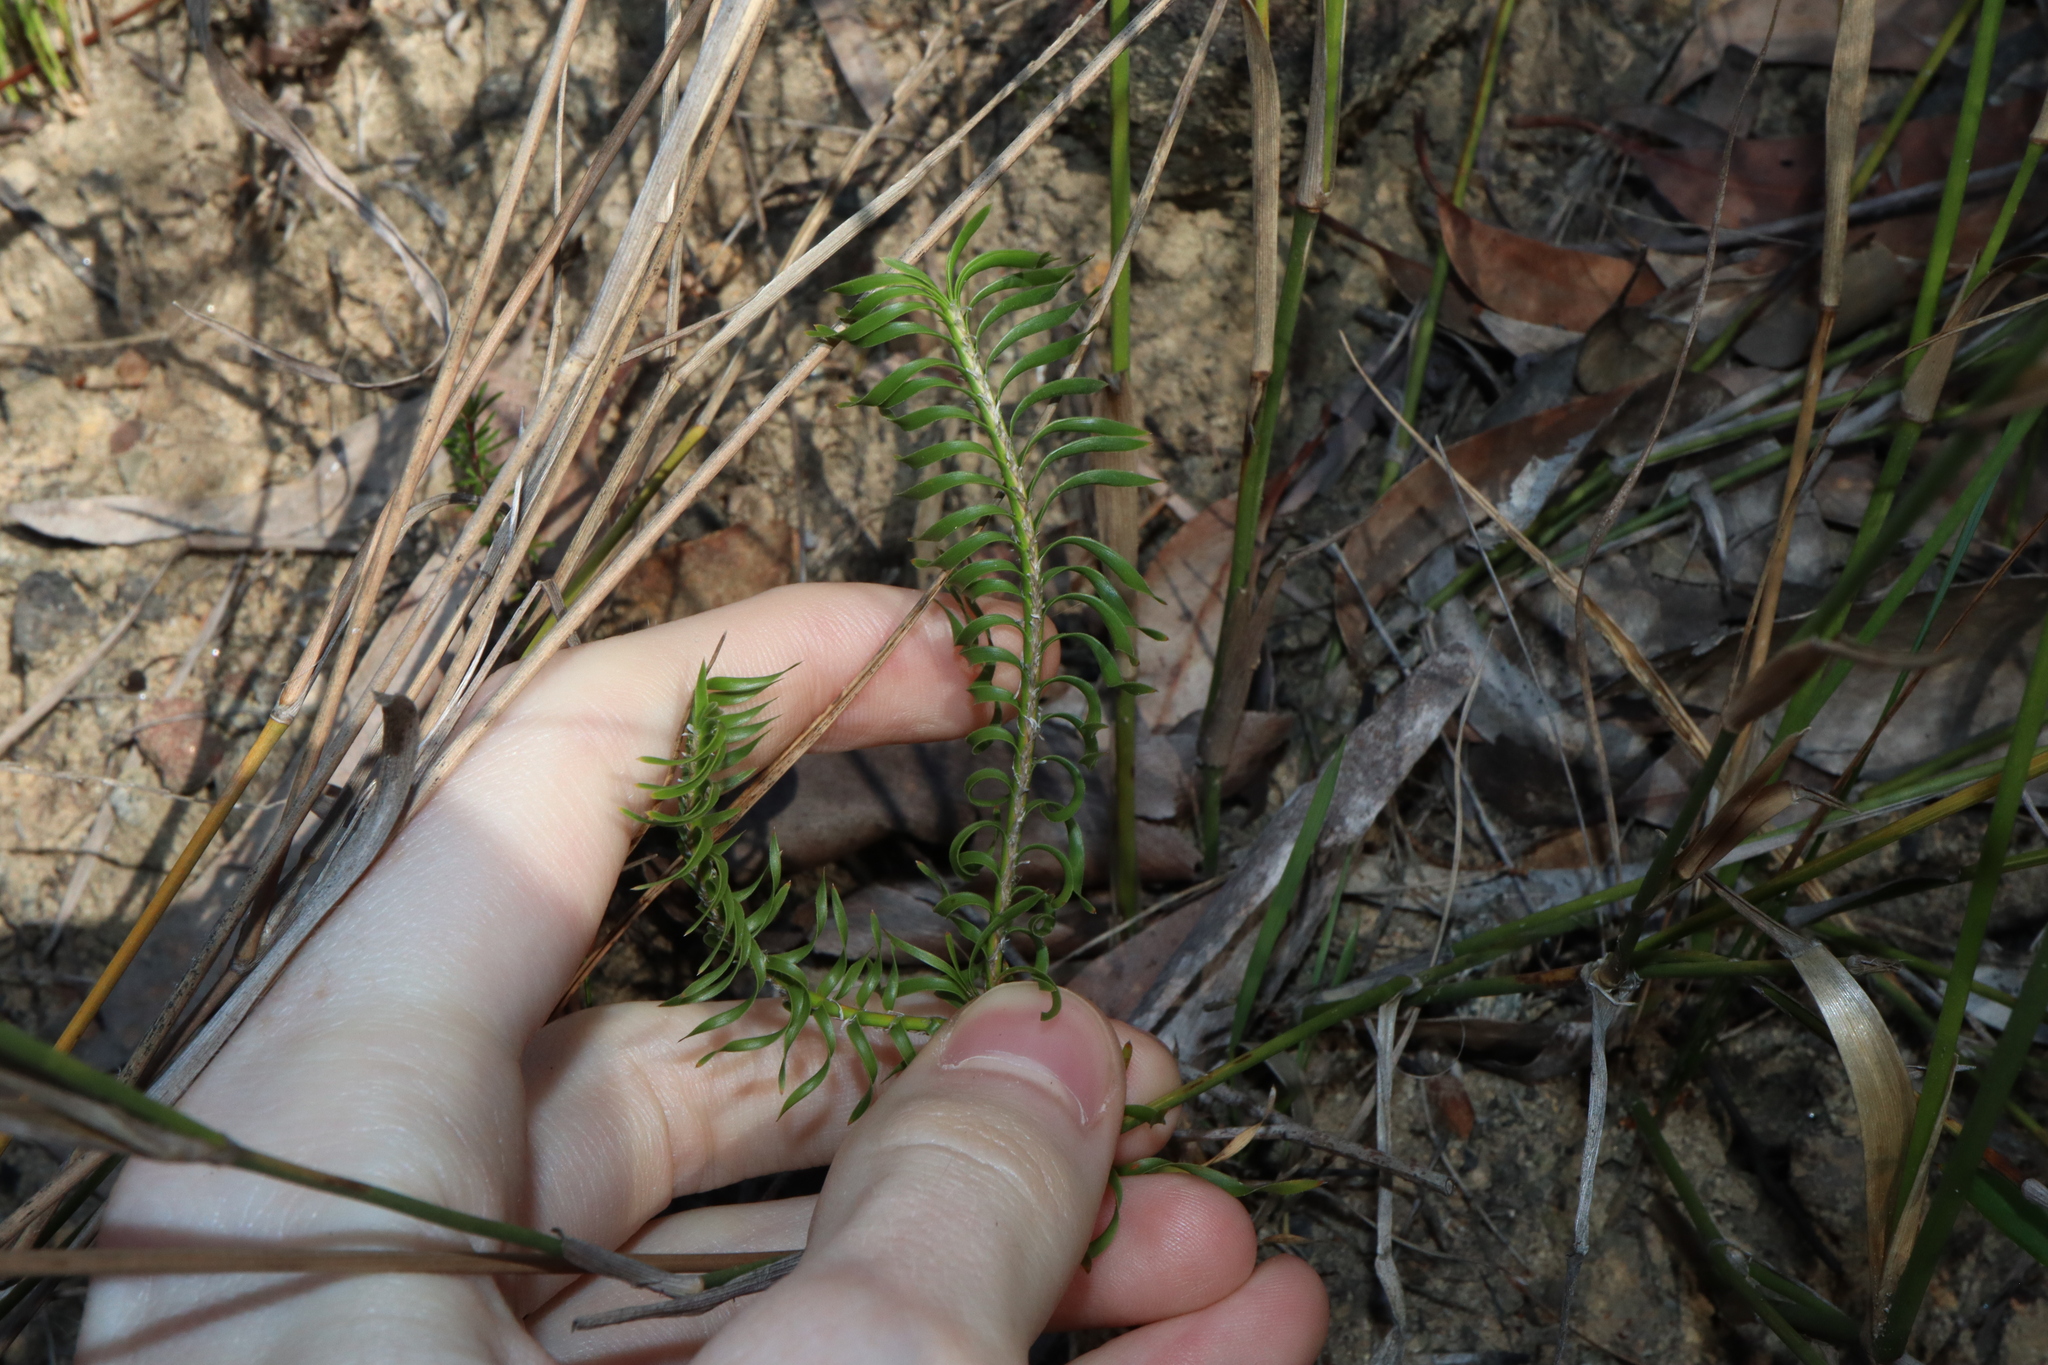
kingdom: Plantae
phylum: Tracheophyta
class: Liliopsida
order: Asparagales
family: Asparagaceae
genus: Lomandra
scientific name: Lomandra obliqua
